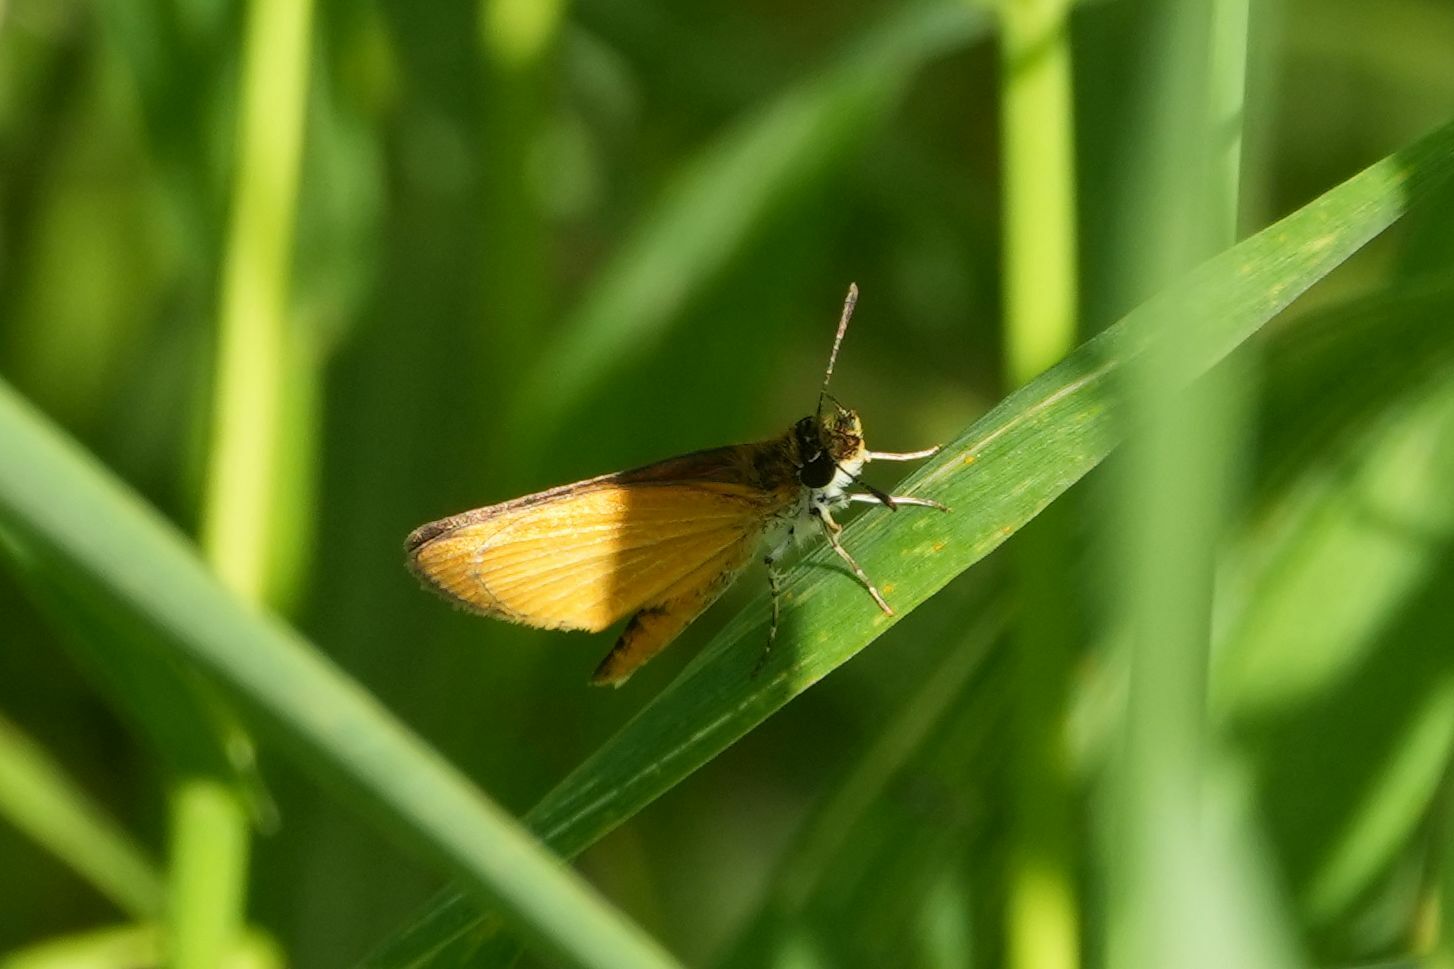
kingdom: Animalia
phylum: Arthropoda
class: Insecta
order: Lepidoptera
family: Hesperiidae
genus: Ancyloxypha
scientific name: Ancyloxypha numitor
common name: Least skipper
